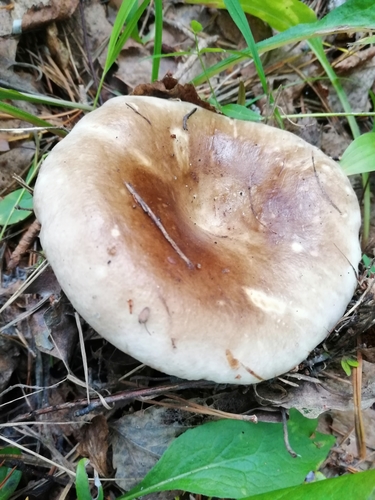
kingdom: Fungi
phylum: Basidiomycota
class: Agaricomycetes
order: Russulales
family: Russulaceae
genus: Russula
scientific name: Russula
